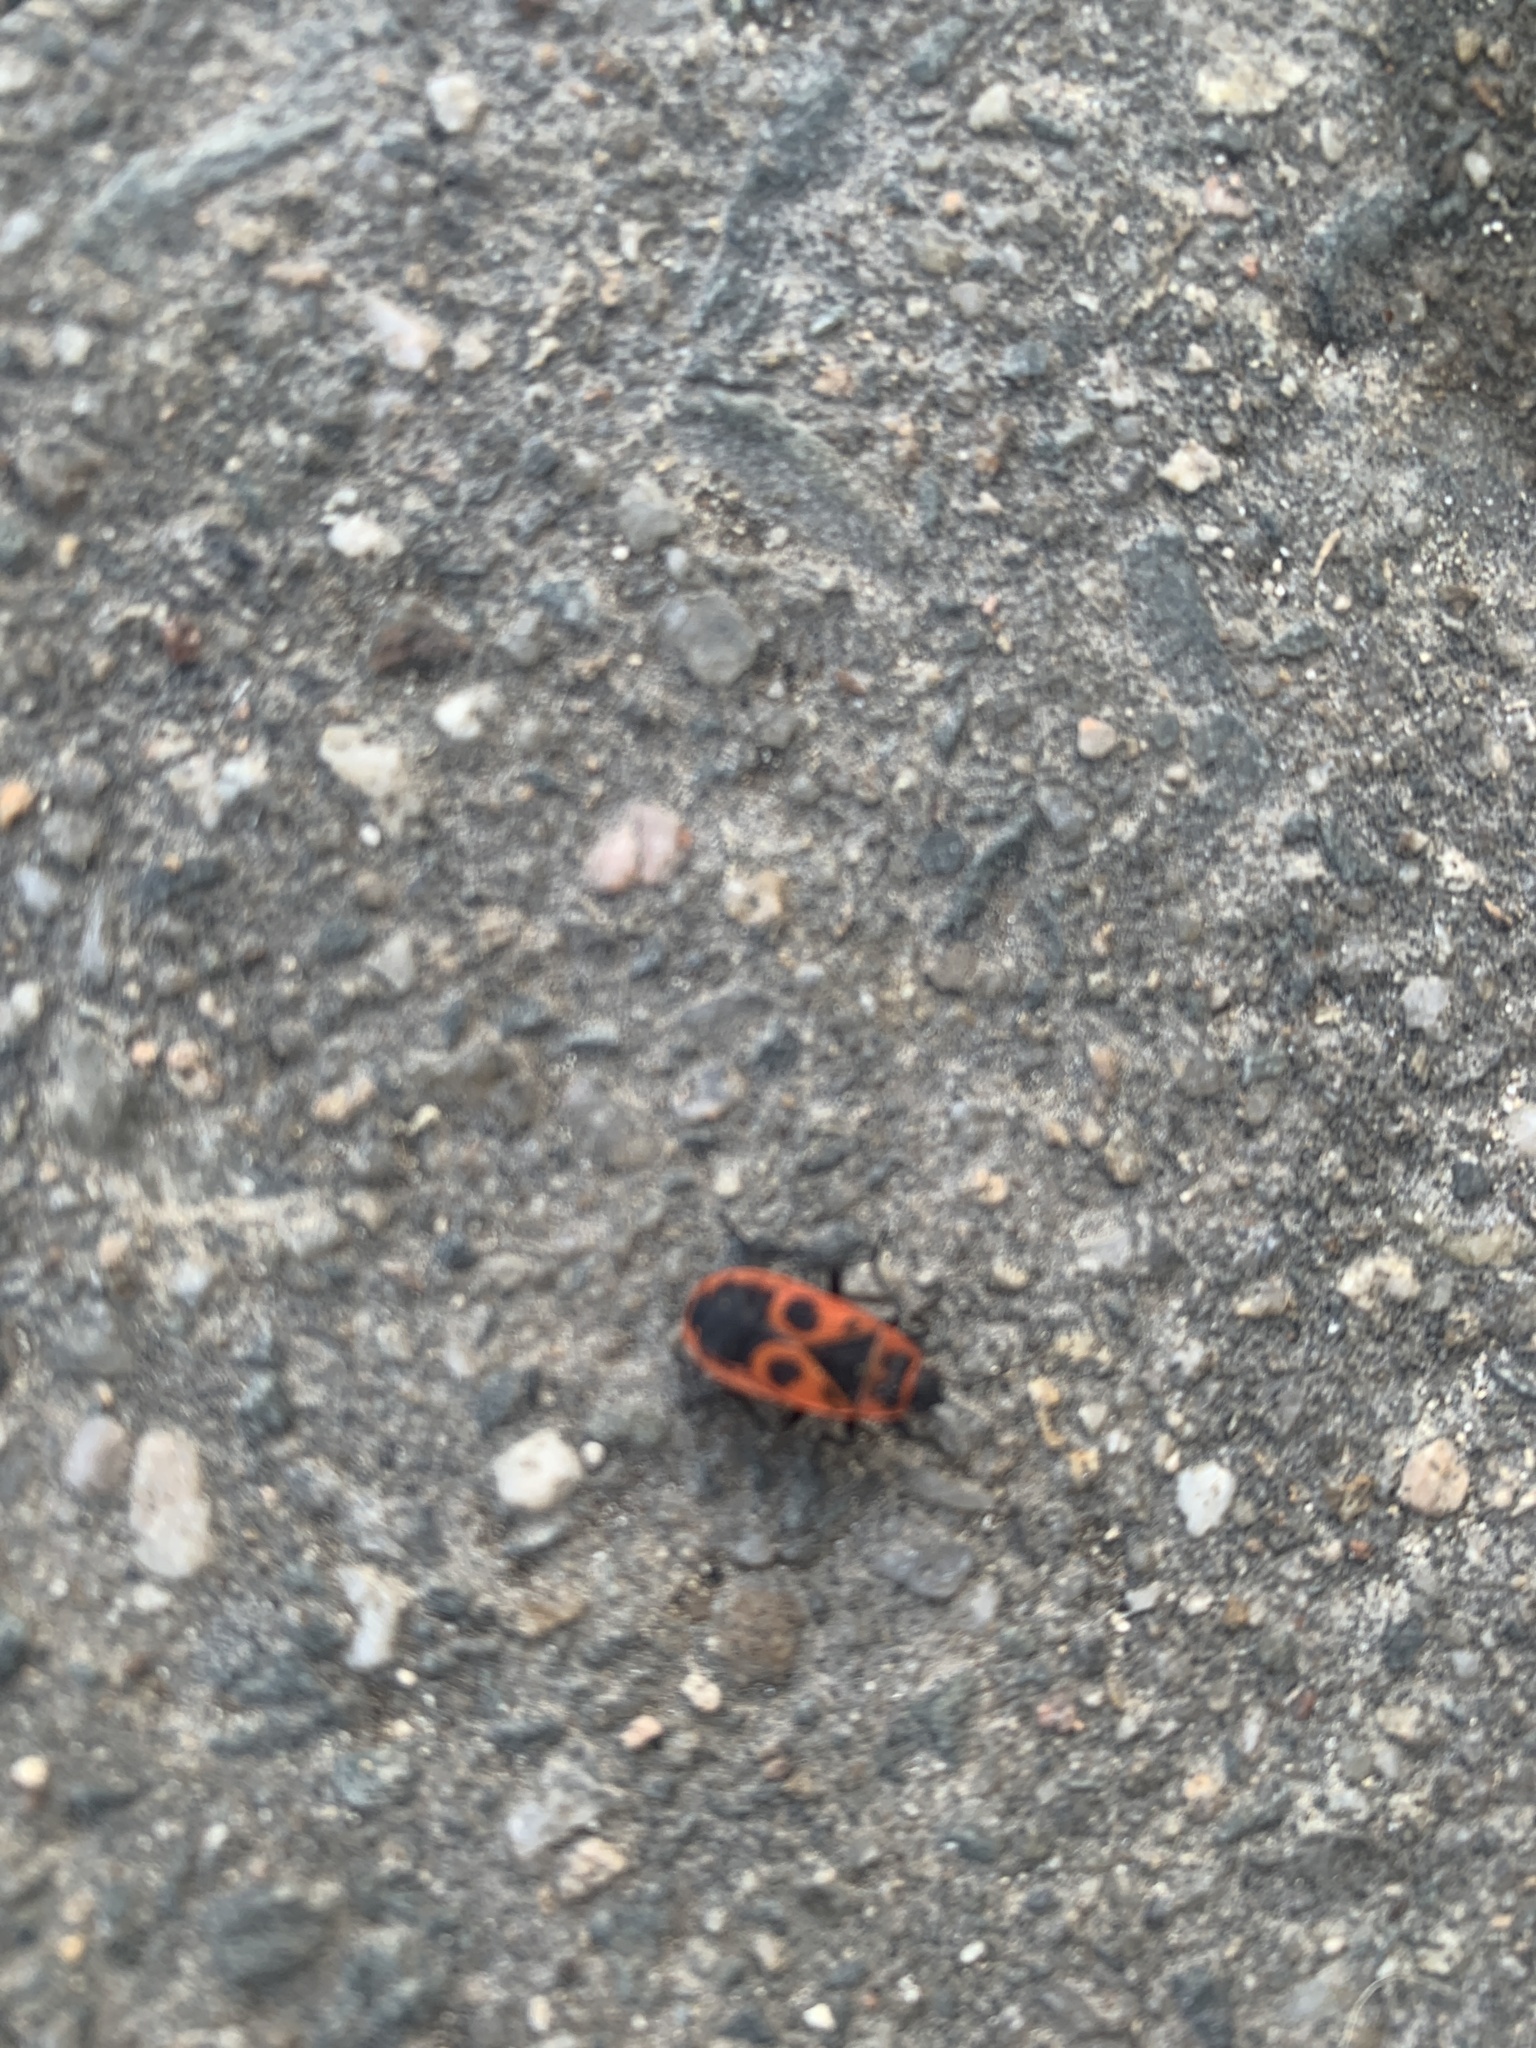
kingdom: Animalia
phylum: Arthropoda
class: Insecta
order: Hemiptera
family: Pyrrhocoridae
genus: Pyrrhocoris
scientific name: Pyrrhocoris apterus
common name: Firebug
